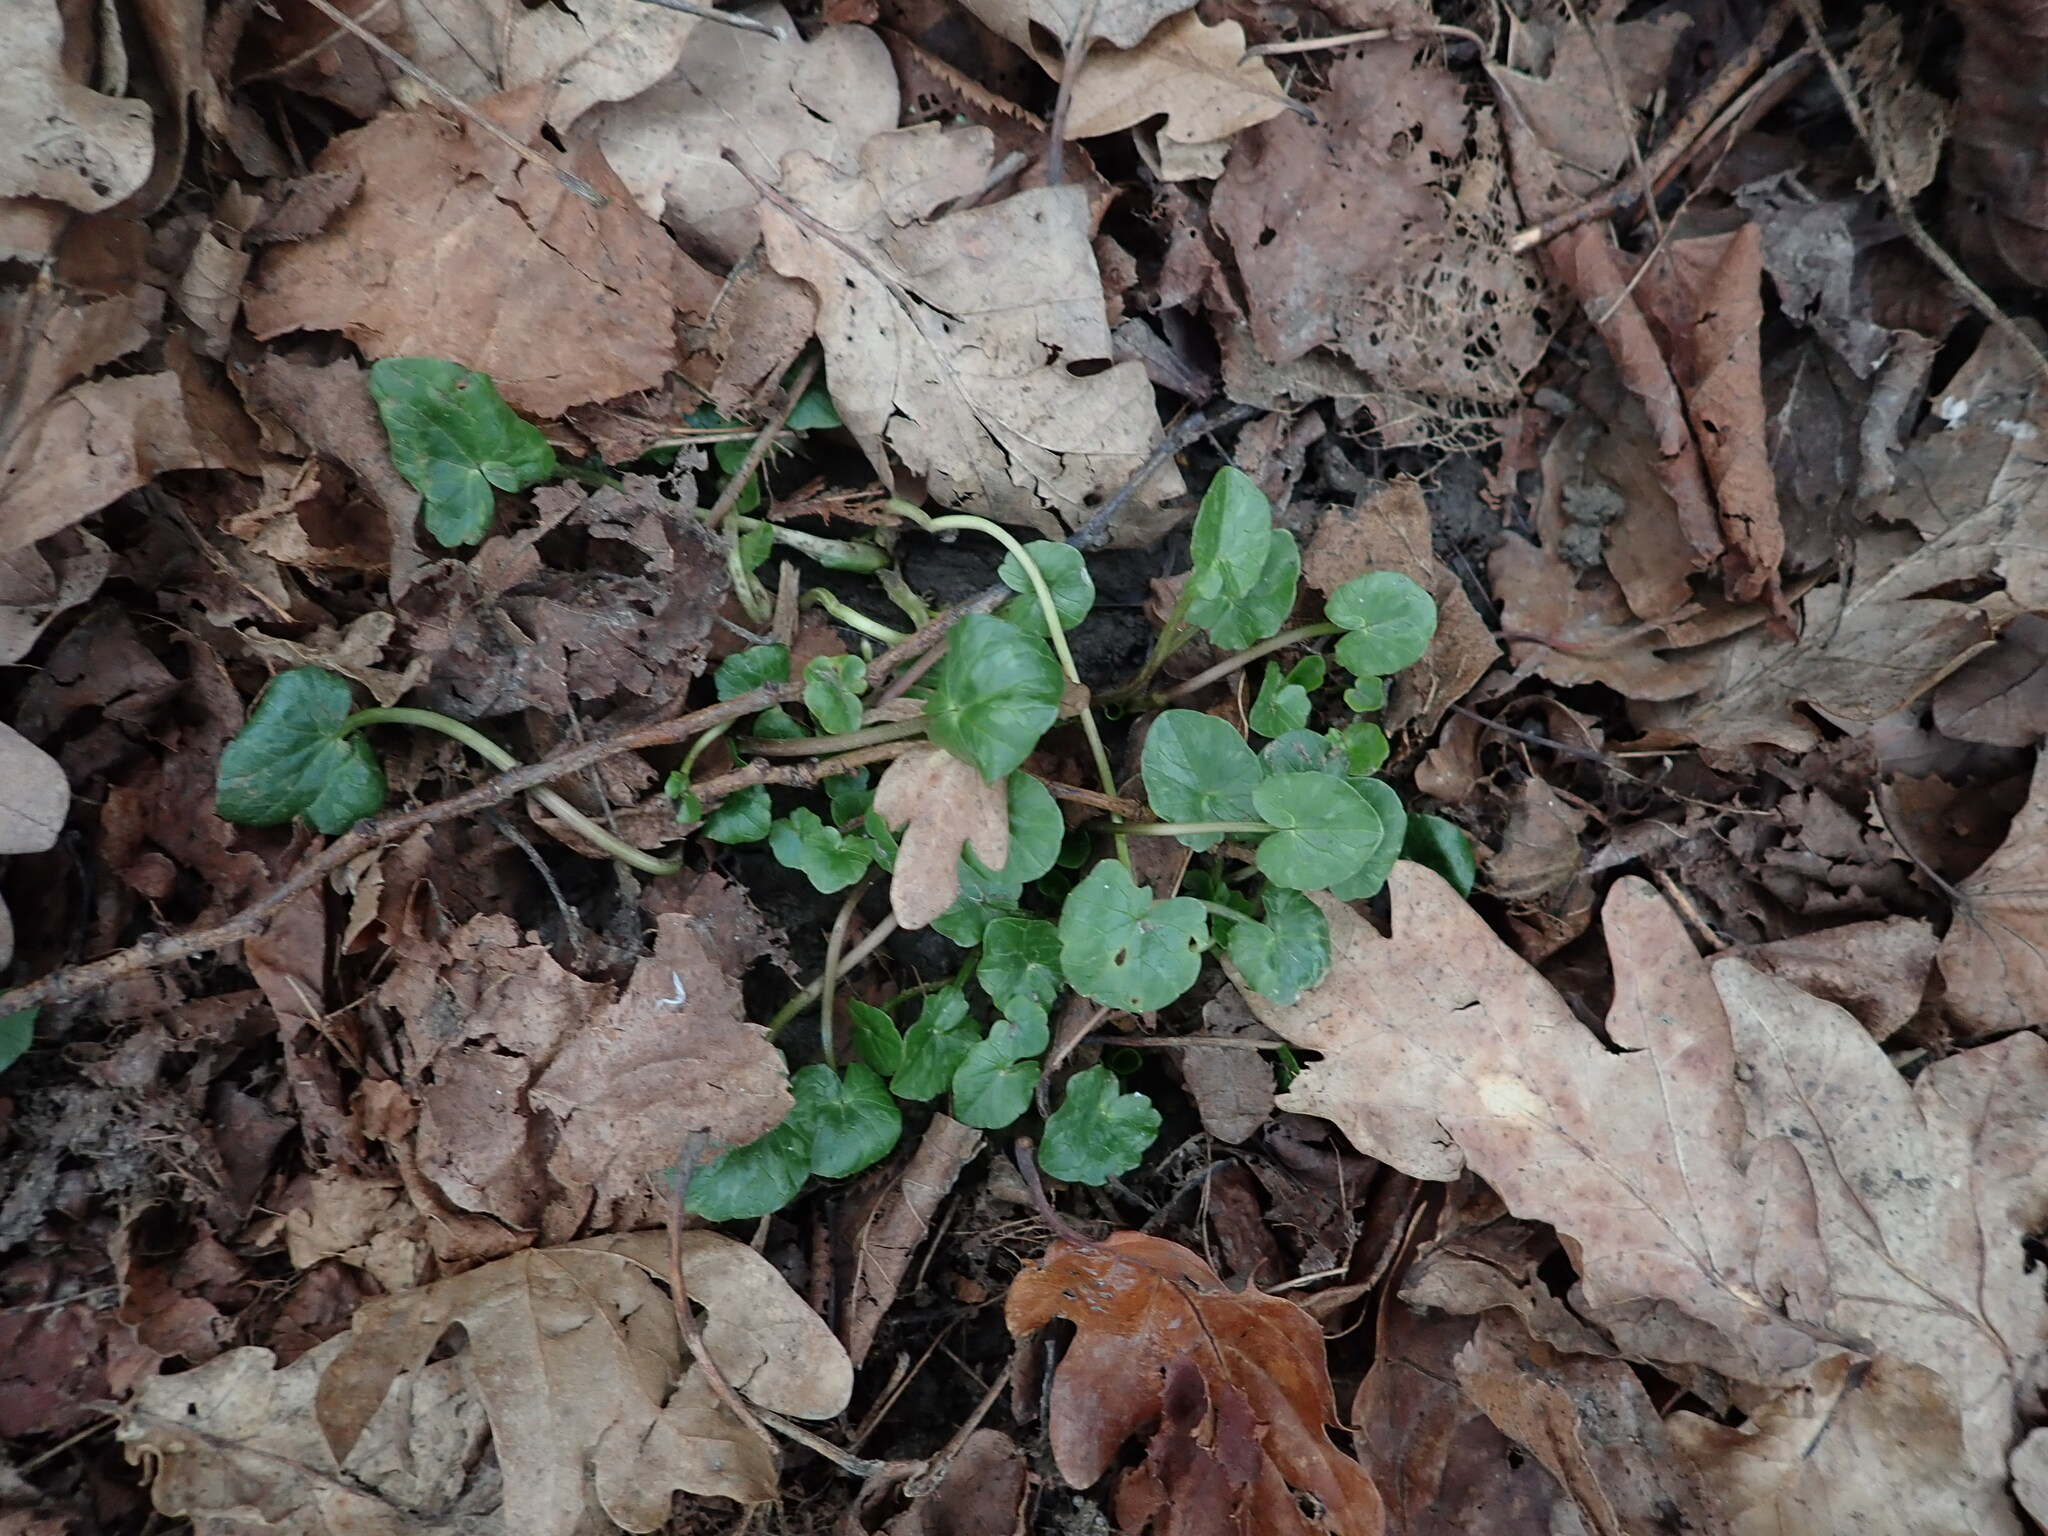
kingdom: Plantae
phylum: Tracheophyta
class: Magnoliopsida
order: Ranunculales
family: Ranunculaceae
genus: Ficaria
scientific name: Ficaria verna
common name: Lesser celandine
